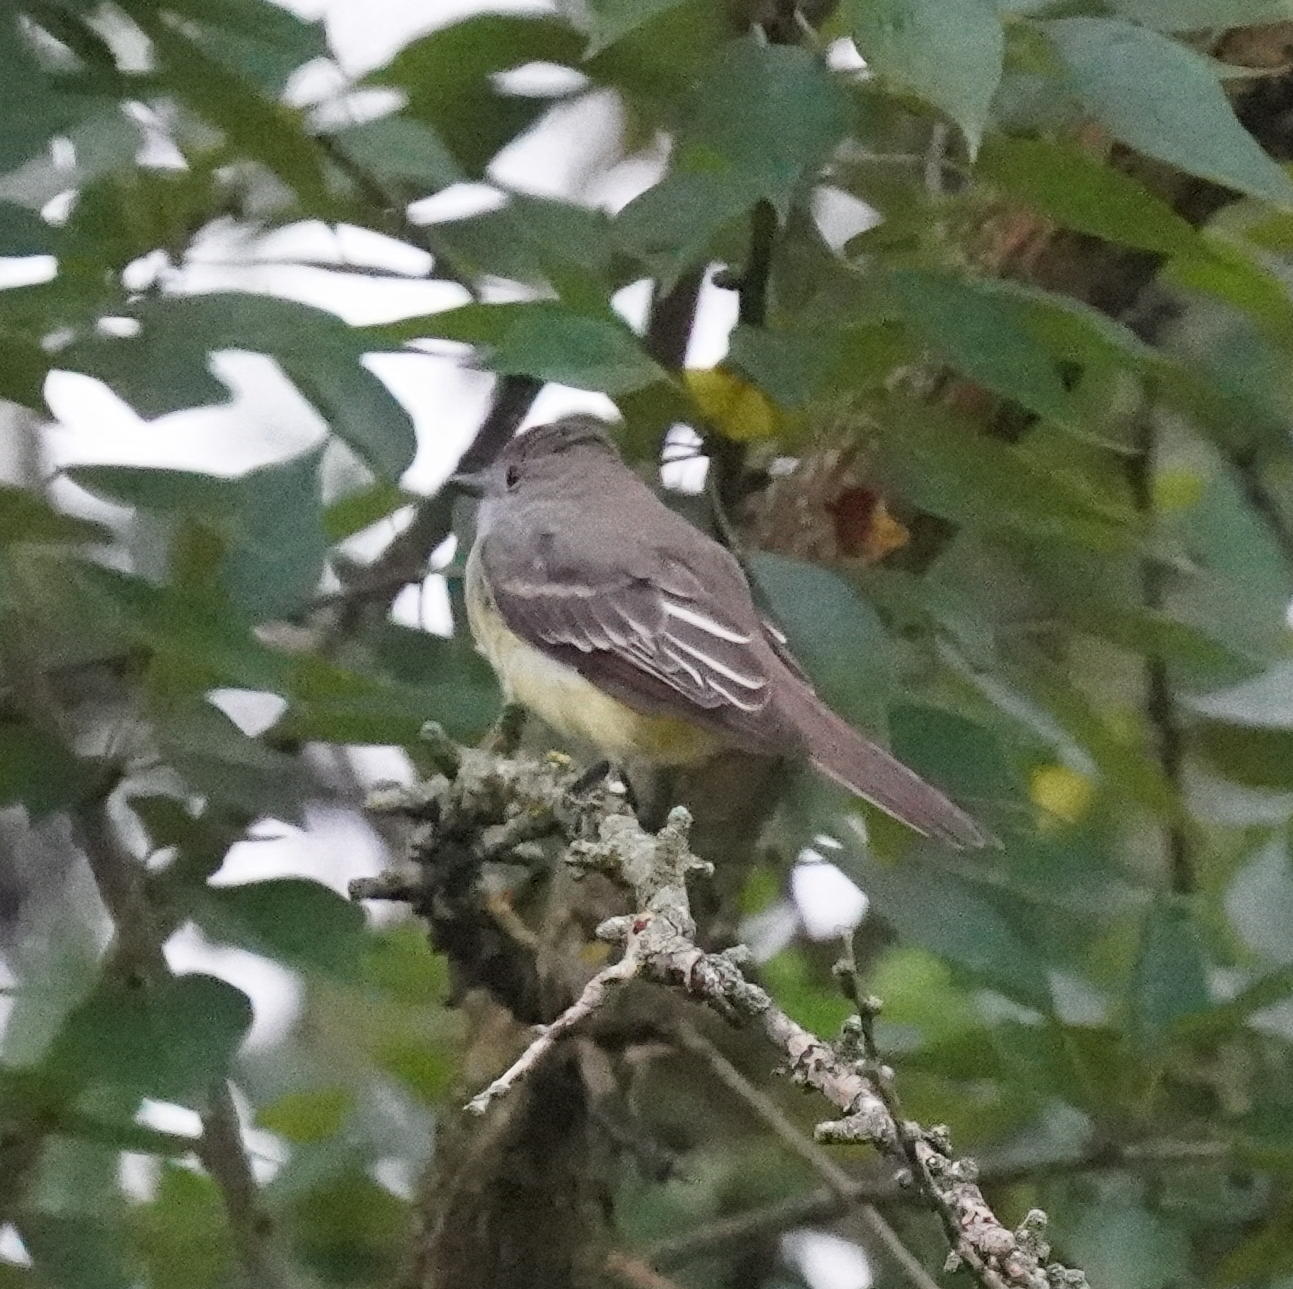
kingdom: Animalia
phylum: Chordata
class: Aves
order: Passeriformes
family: Tyrannidae
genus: Myiarchus
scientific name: Myiarchus crinitus
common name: Great crested flycatcher
